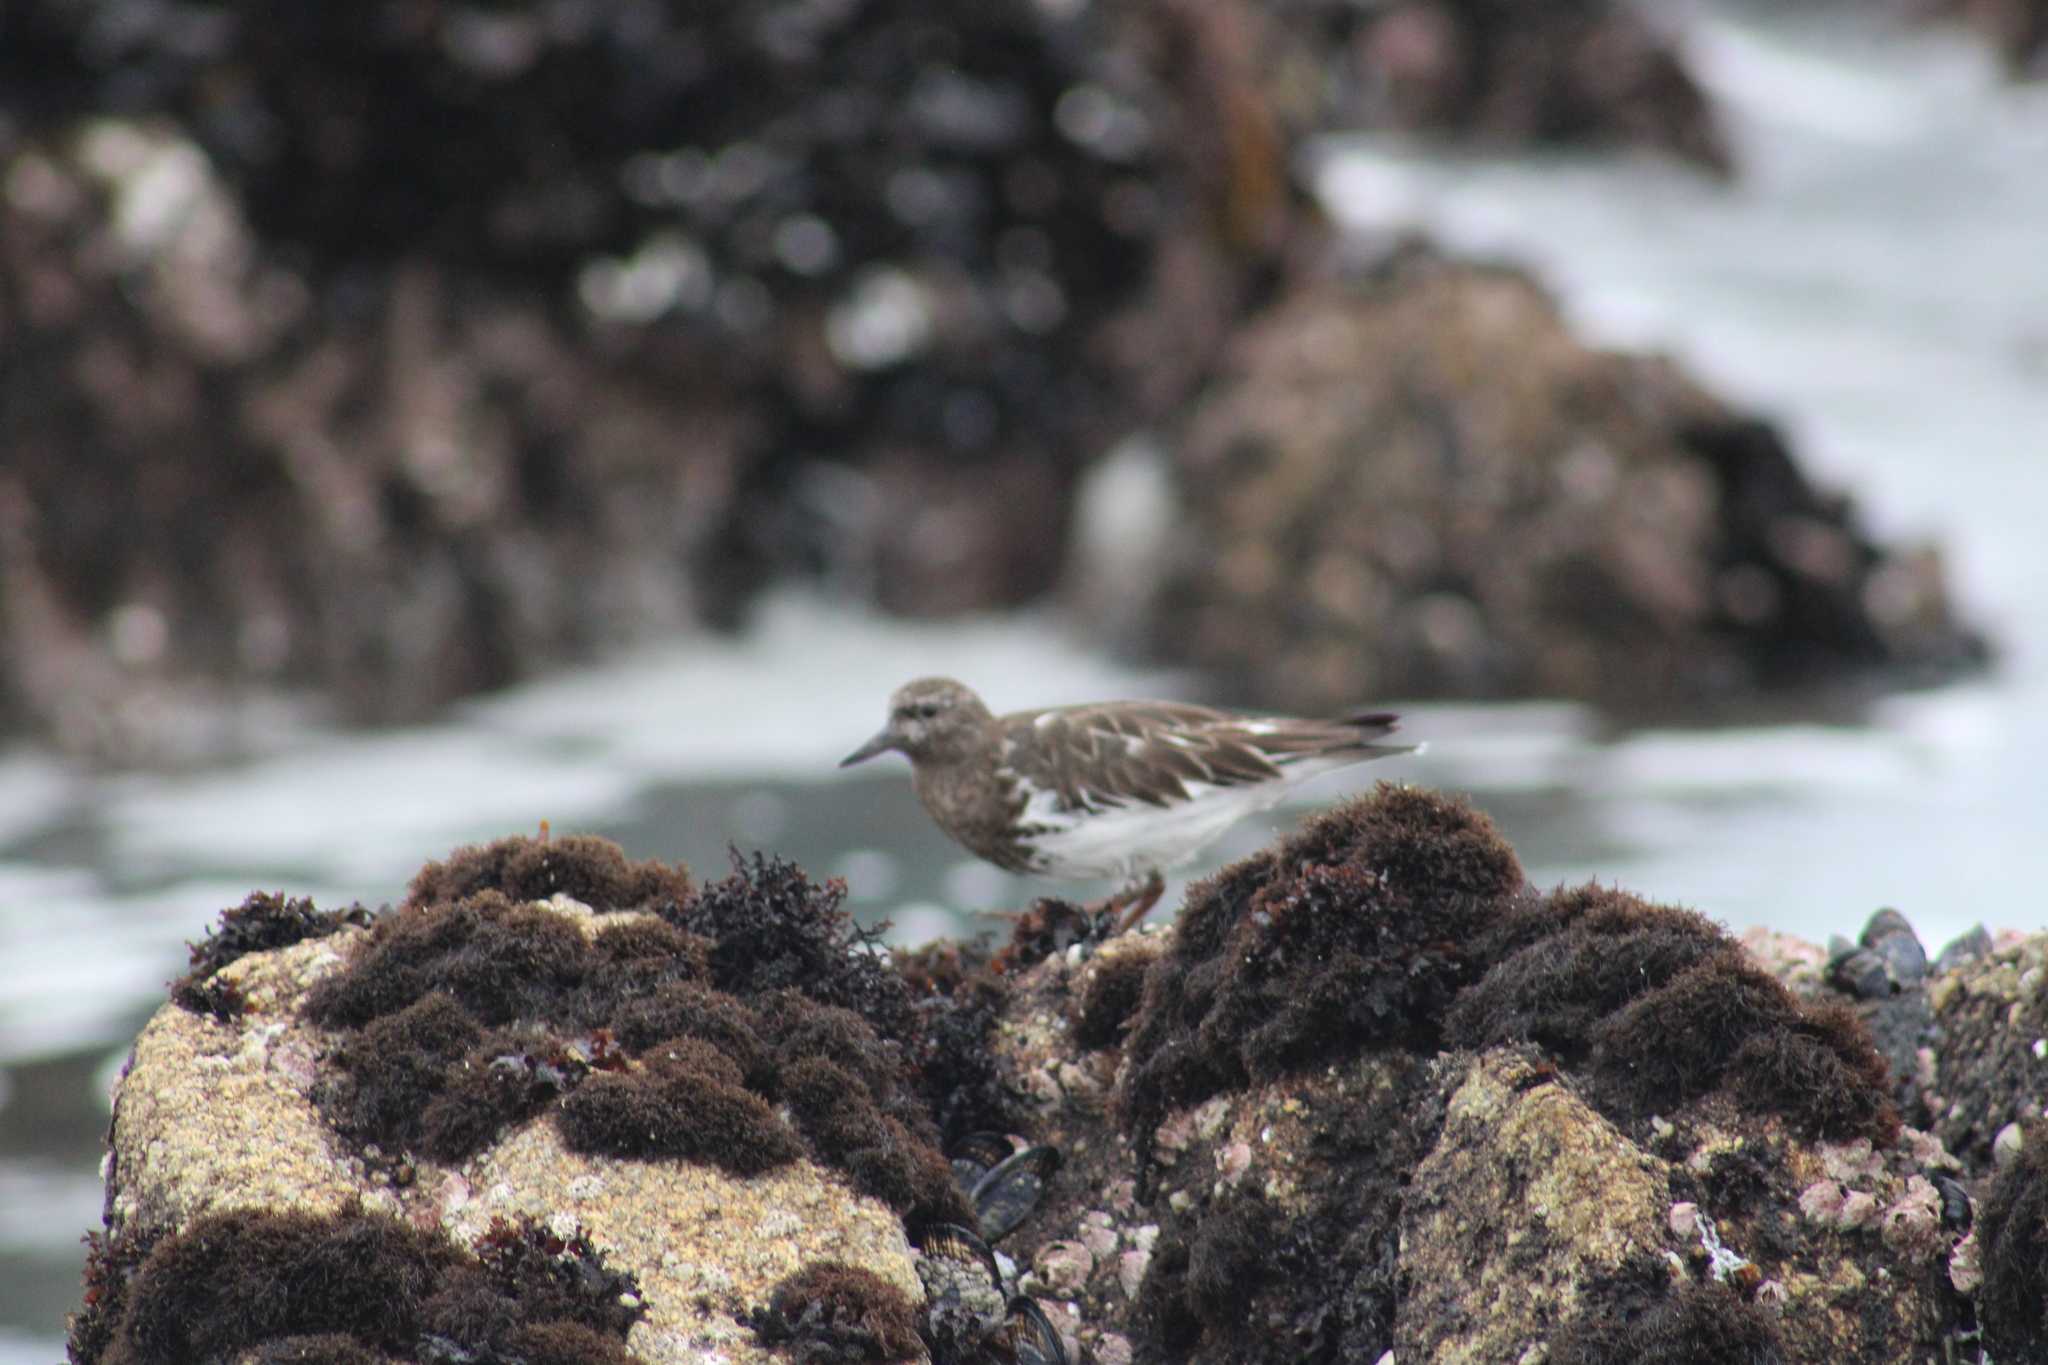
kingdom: Animalia
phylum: Chordata
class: Aves
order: Charadriiformes
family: Scolopacidae
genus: Arenaria
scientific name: Arenaria melanocephala
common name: Black turnstone
